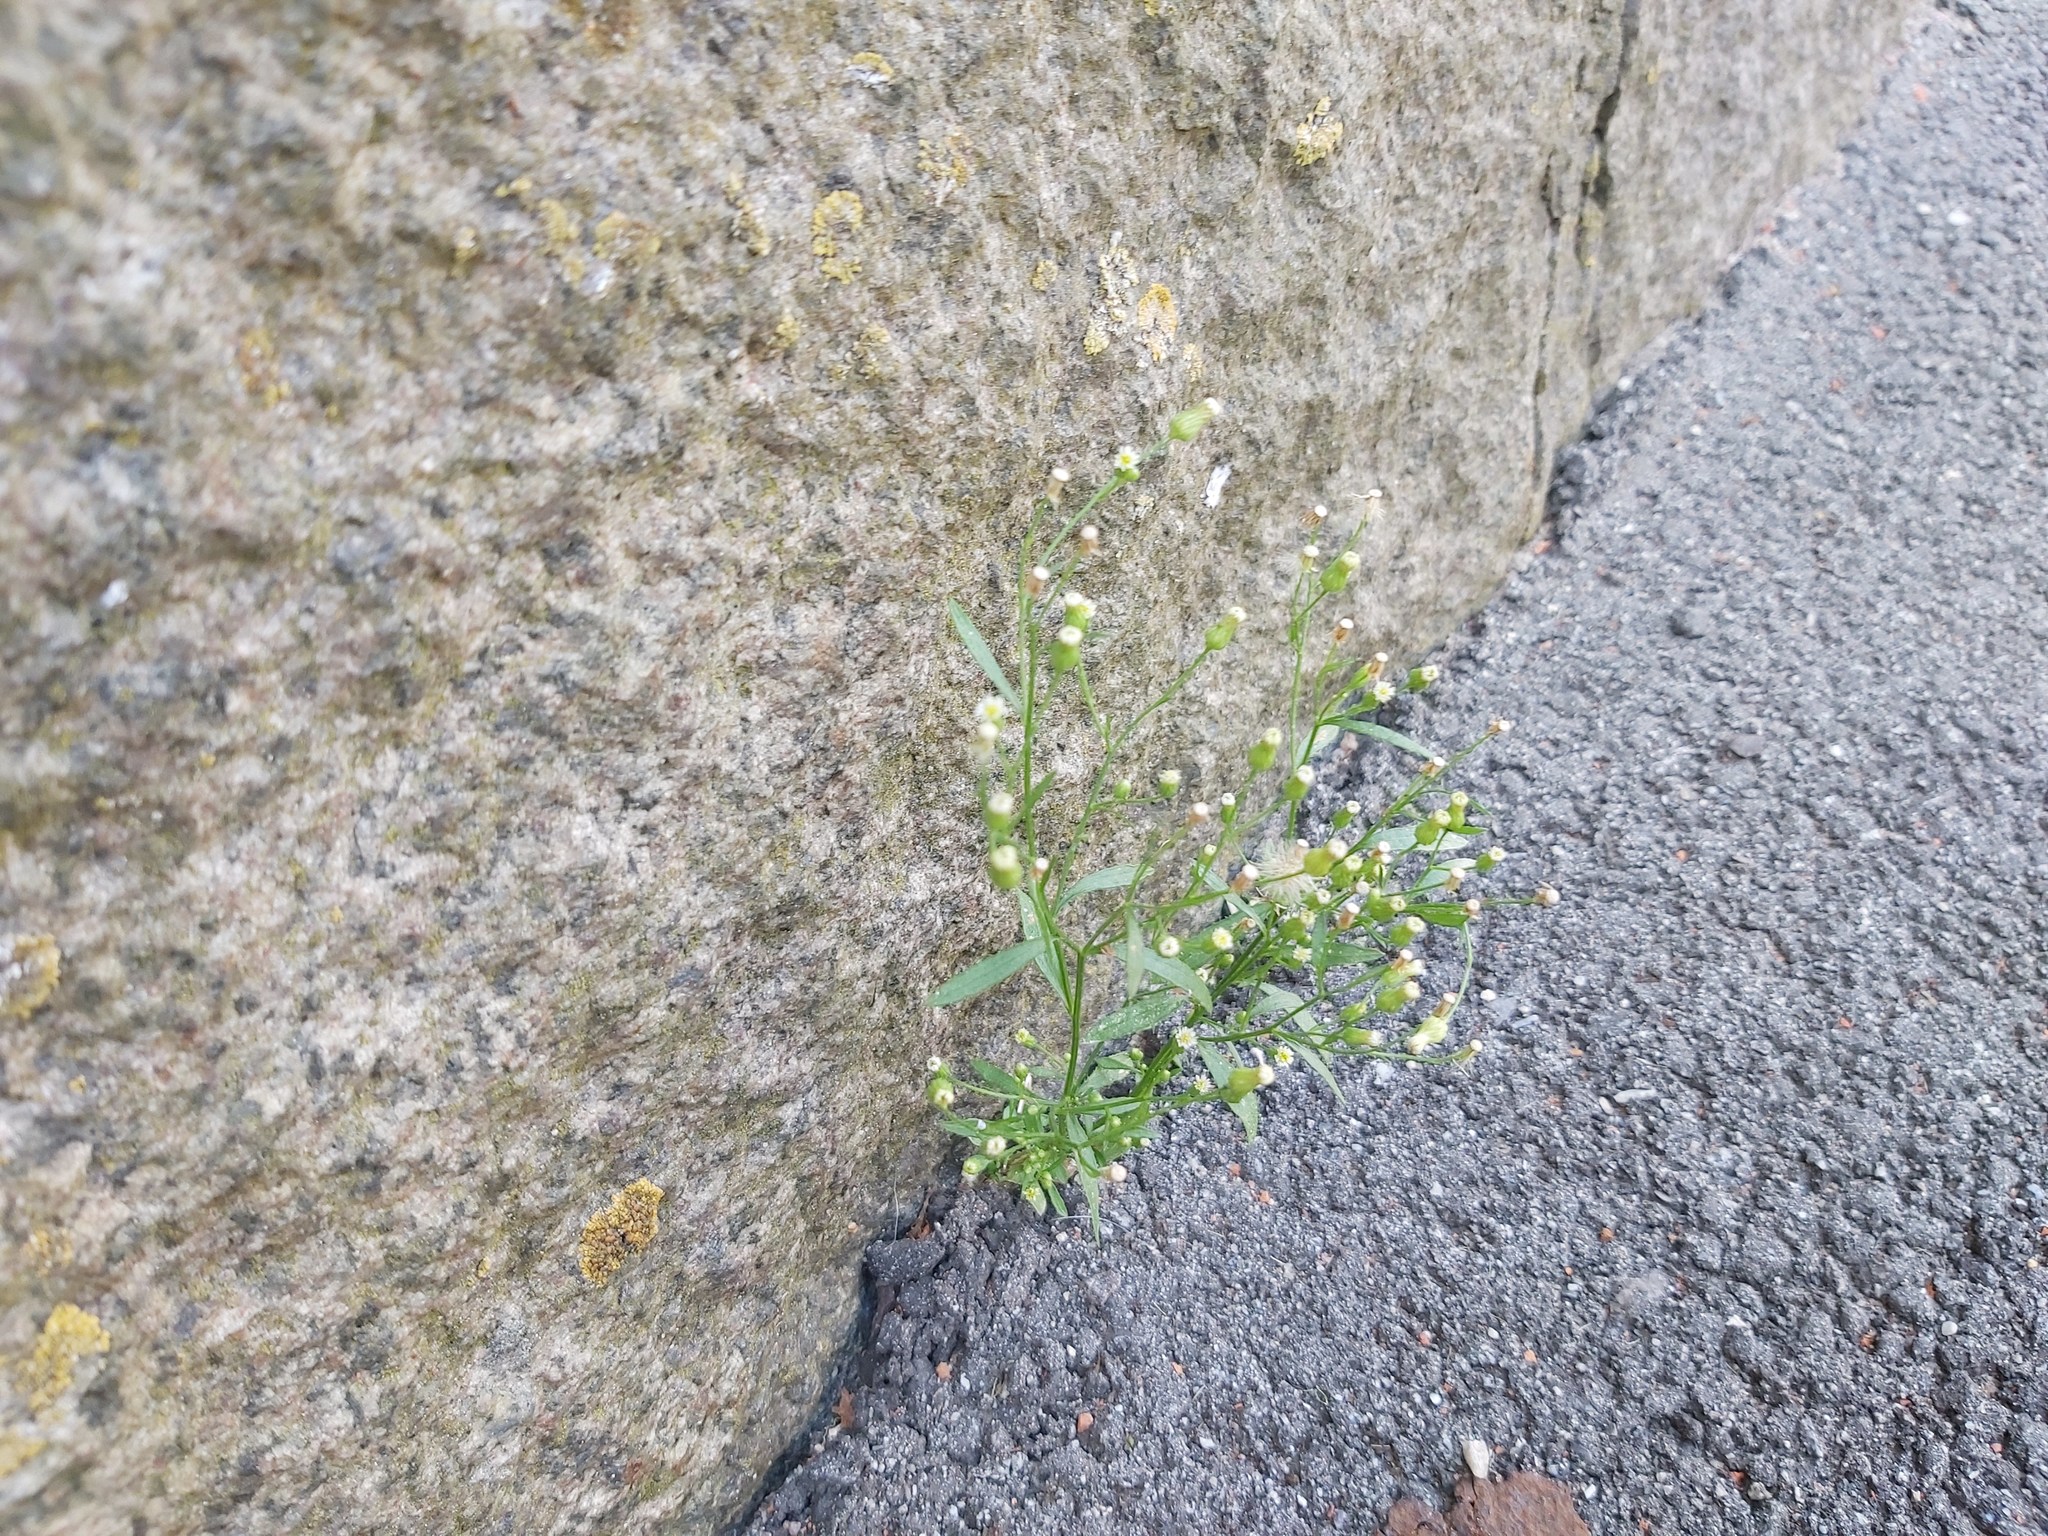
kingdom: Plantae
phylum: Tracheophyta
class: Magnoliopsida
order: Asterales
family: Asteraceae
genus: Erigeron
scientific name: Erigeron canadensis
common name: Canadian fleabane
